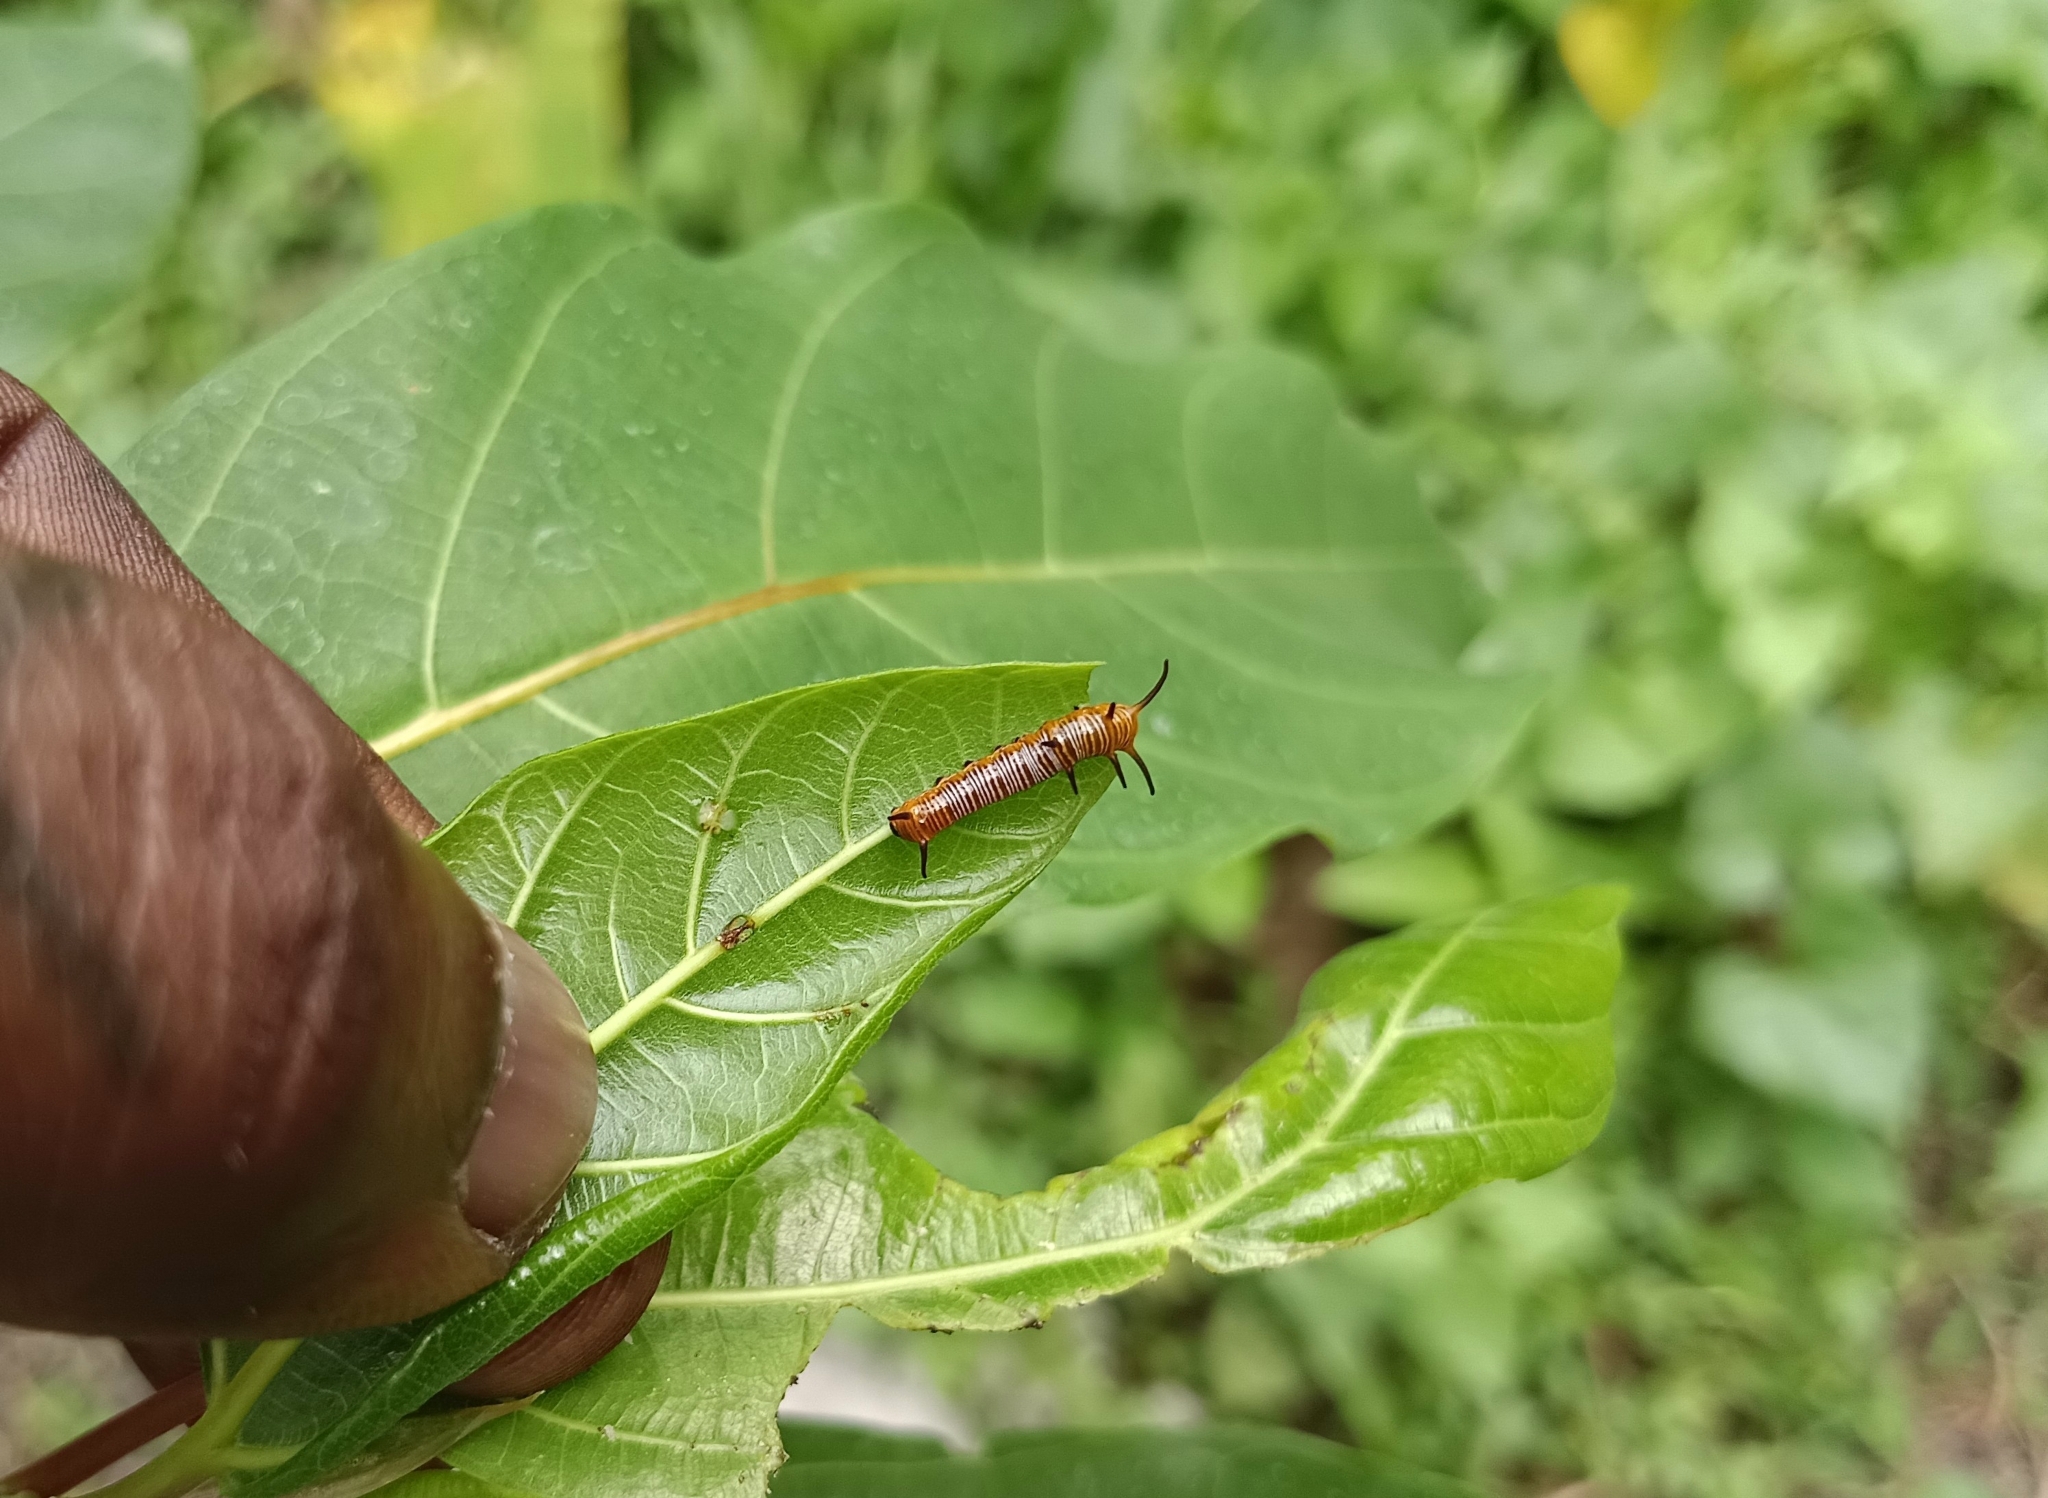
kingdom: Animalia
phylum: Arthropoda
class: Insecta
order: Lepidoptera
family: Nymphalidae
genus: Euploea
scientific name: Euploea core
